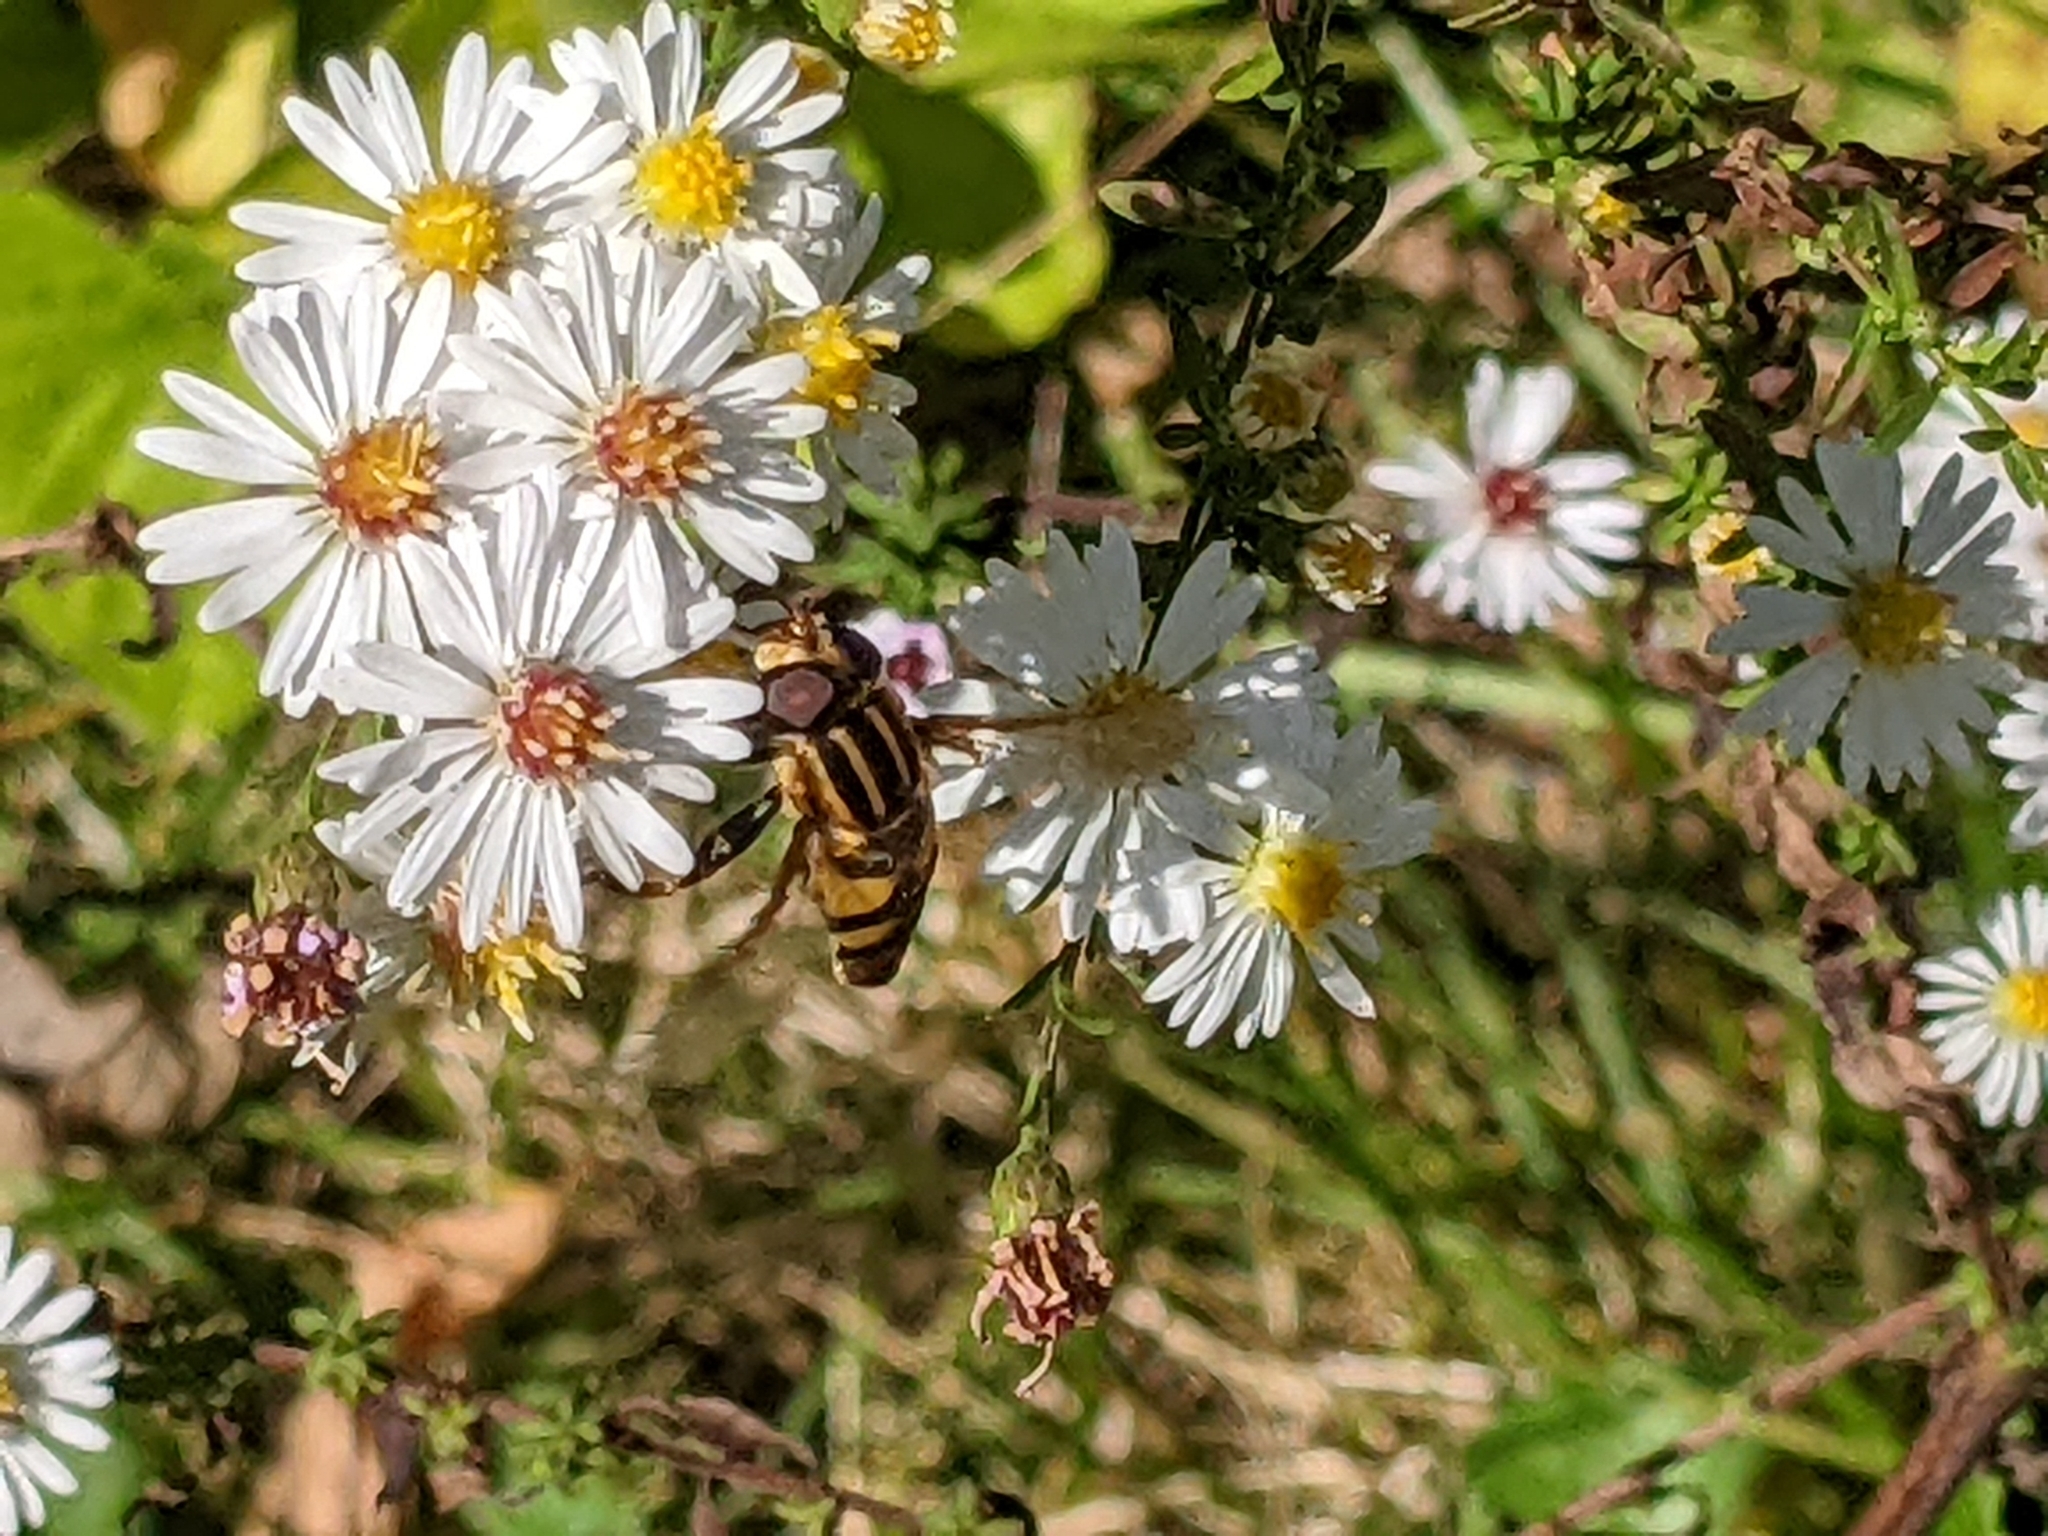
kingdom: Animalia
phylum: Arthropoda
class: Insecta
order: Diptera
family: Syrphidae
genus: Helophilus
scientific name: Helophilus fasciatus
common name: Narrow-headed marsh fly
